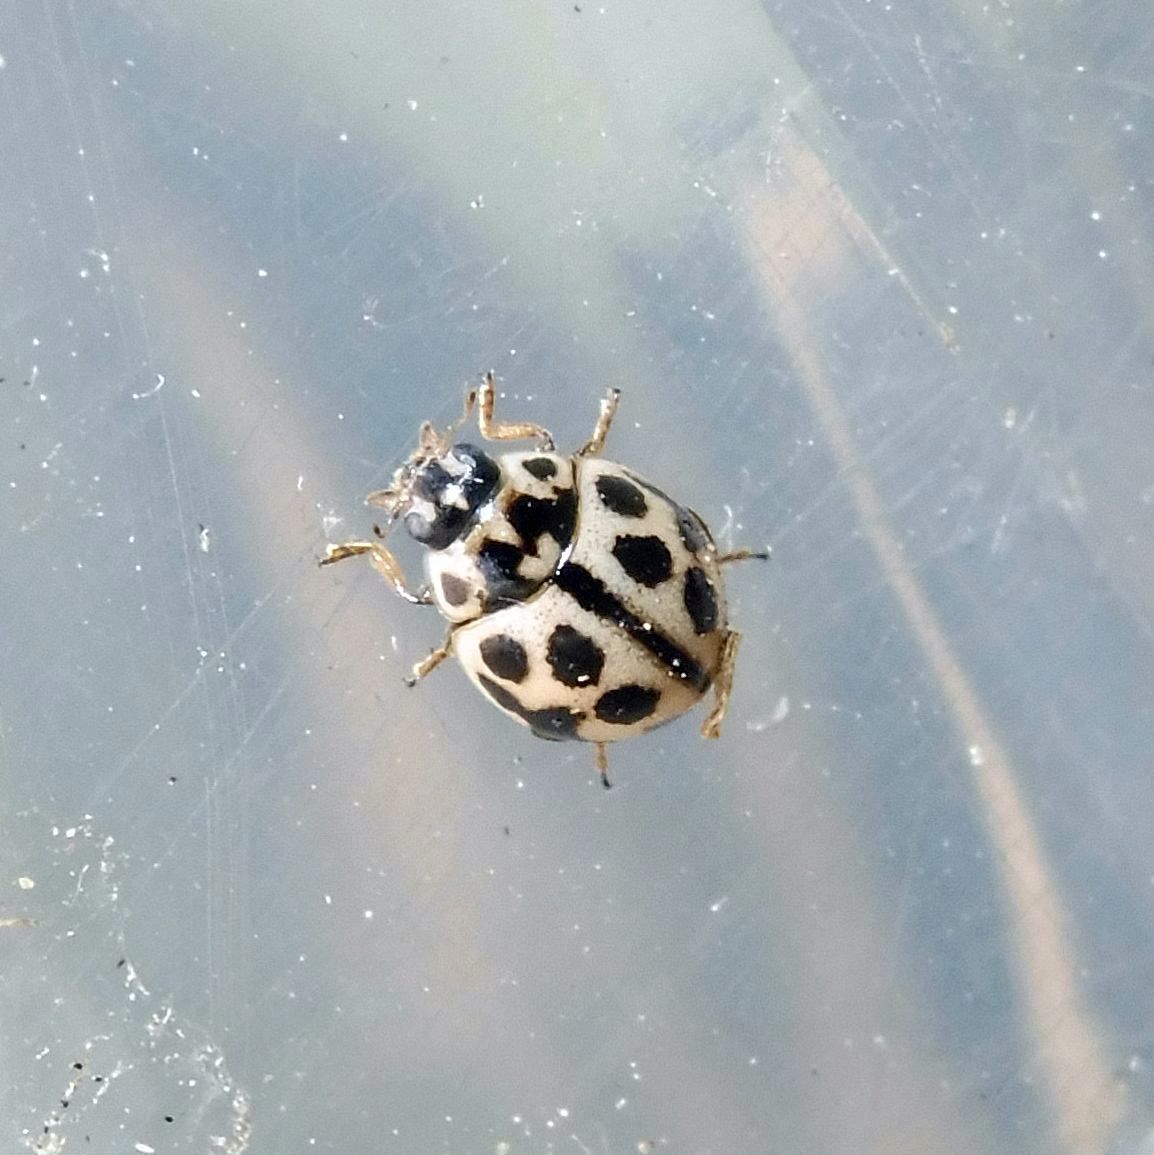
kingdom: Animalia
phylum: Arthropoda
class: Insecta
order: Coleoptera
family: Coccinellidae
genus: Tytthaspis
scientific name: Tytthaspis sedecimpunctata
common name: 16-spot ladybird
